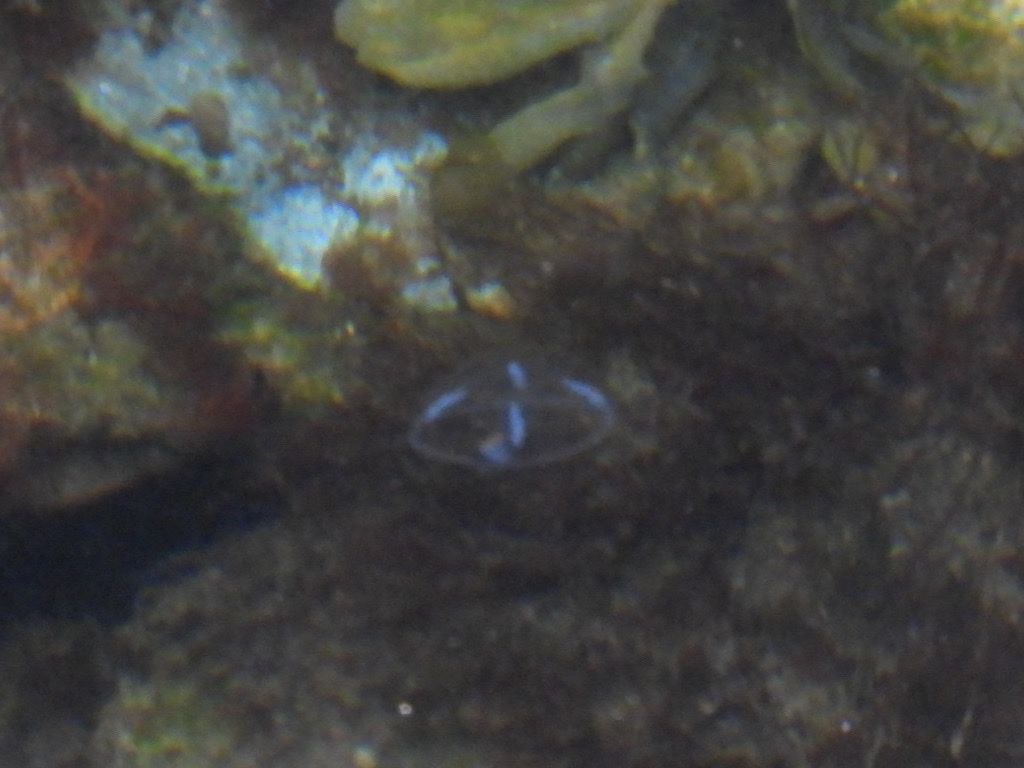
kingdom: Animalia
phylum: Cnidaria
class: Hydrozoa
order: Leptothecata
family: Eirenidae
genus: Eutonina
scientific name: Eutonina indicans
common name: Umbrella jellyfish
